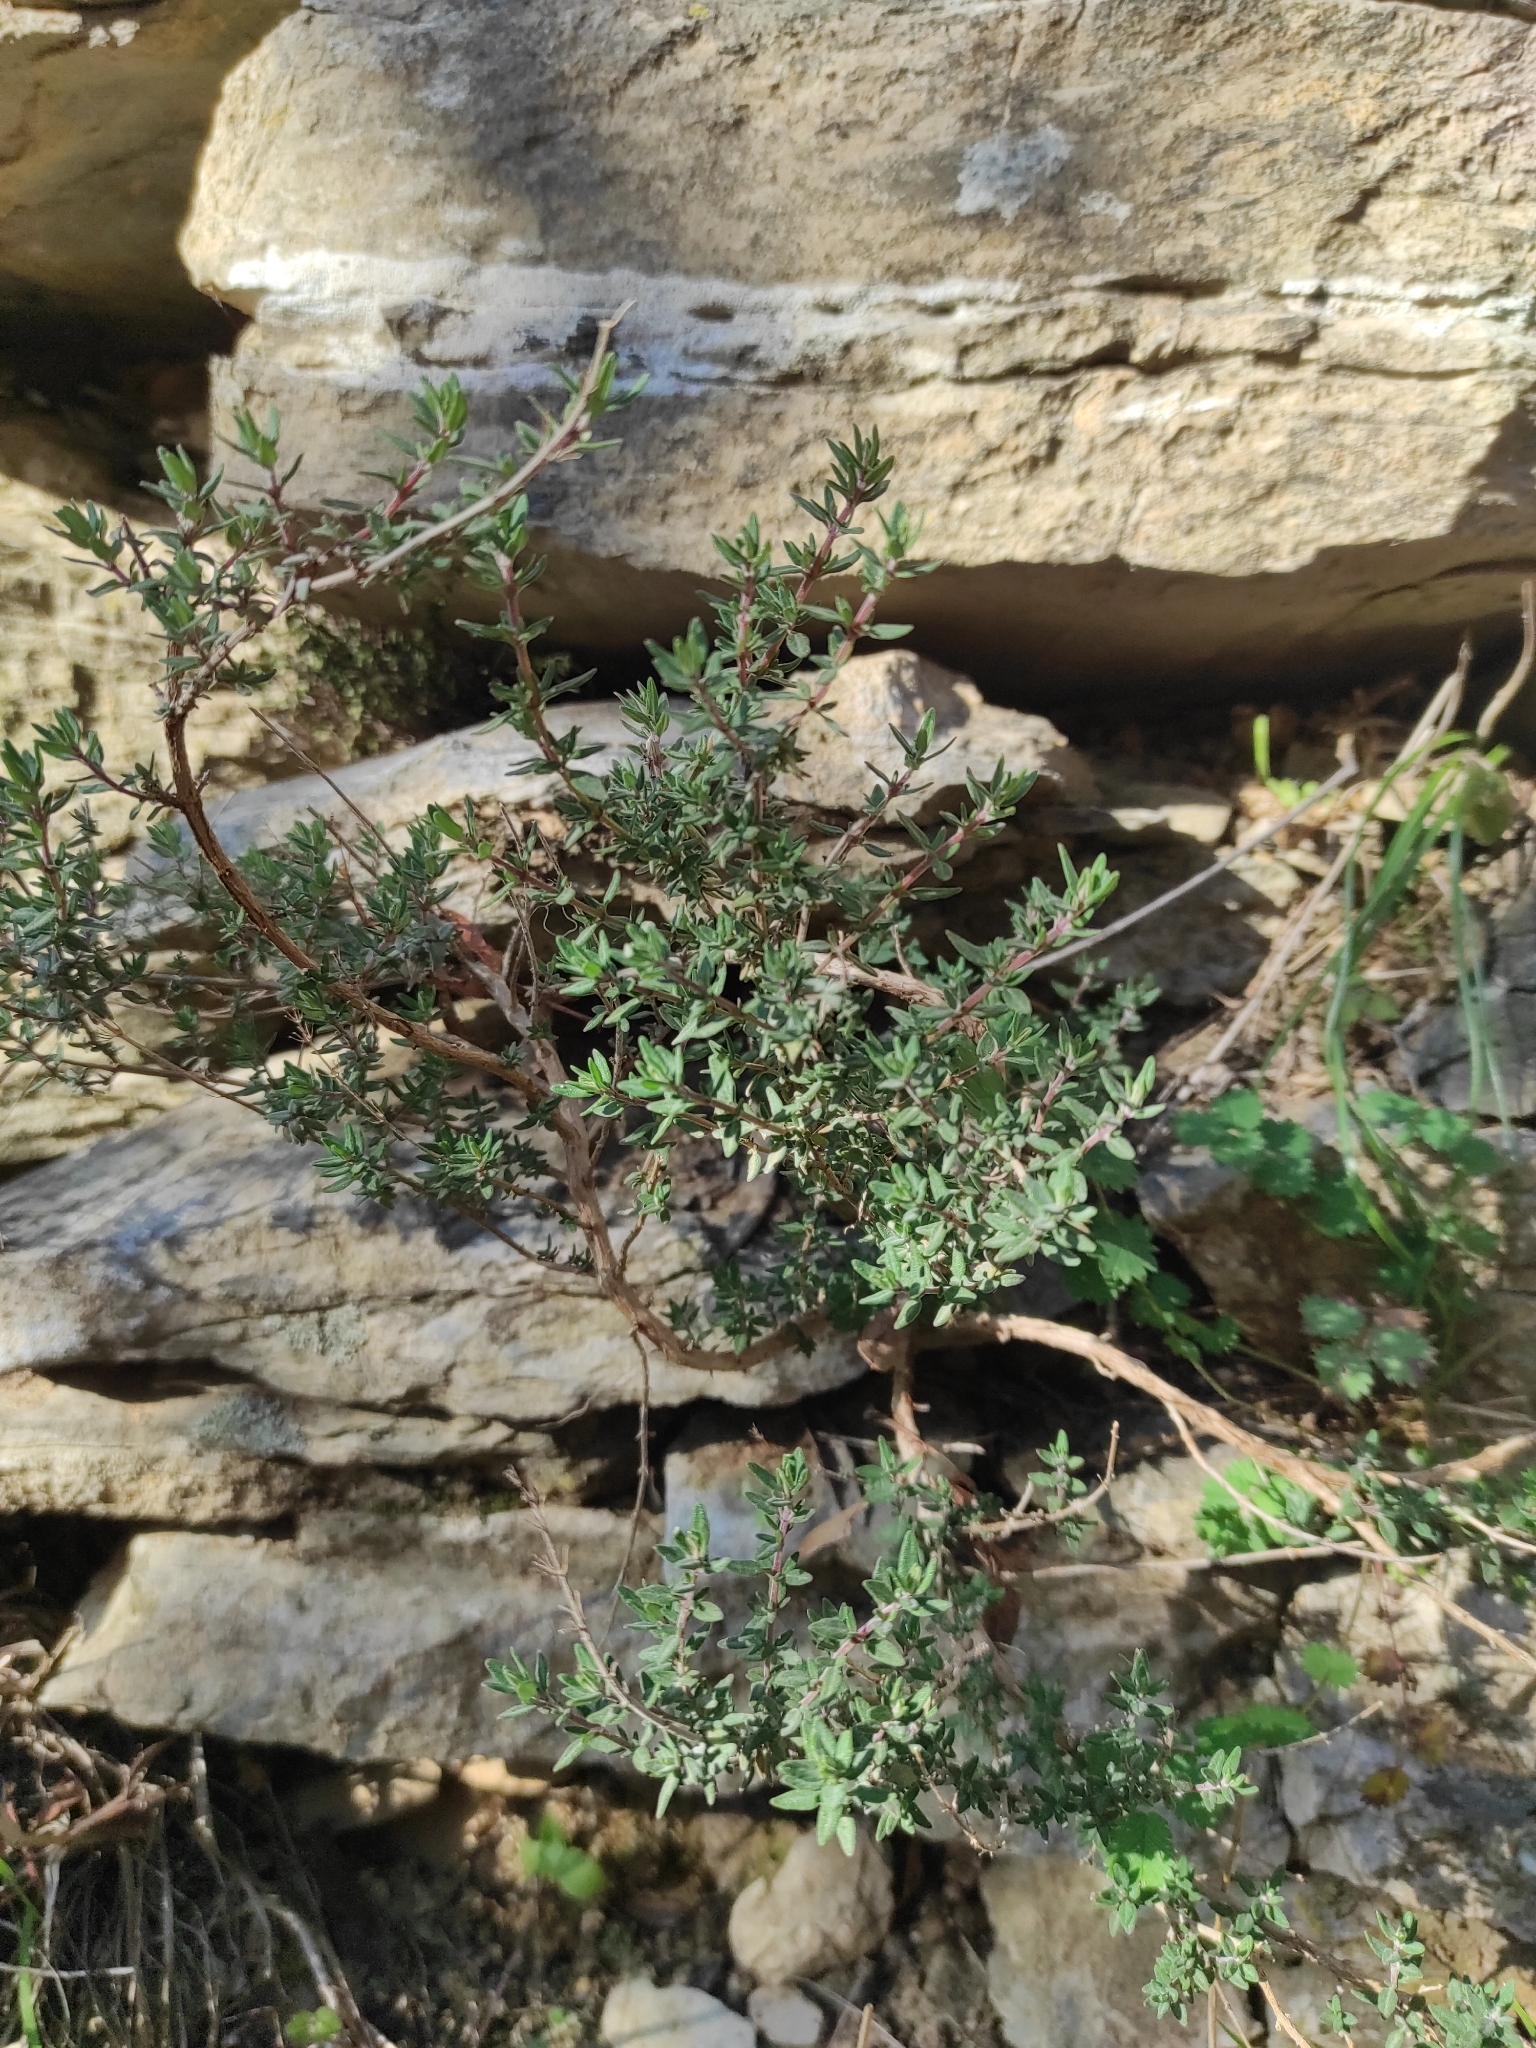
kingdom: Plantae
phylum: Tracheophyta
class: Magnoliopsida
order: Lamiales
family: Lamiaceae
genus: Thymus
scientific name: Thymus vulgaris
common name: Garden thyme
